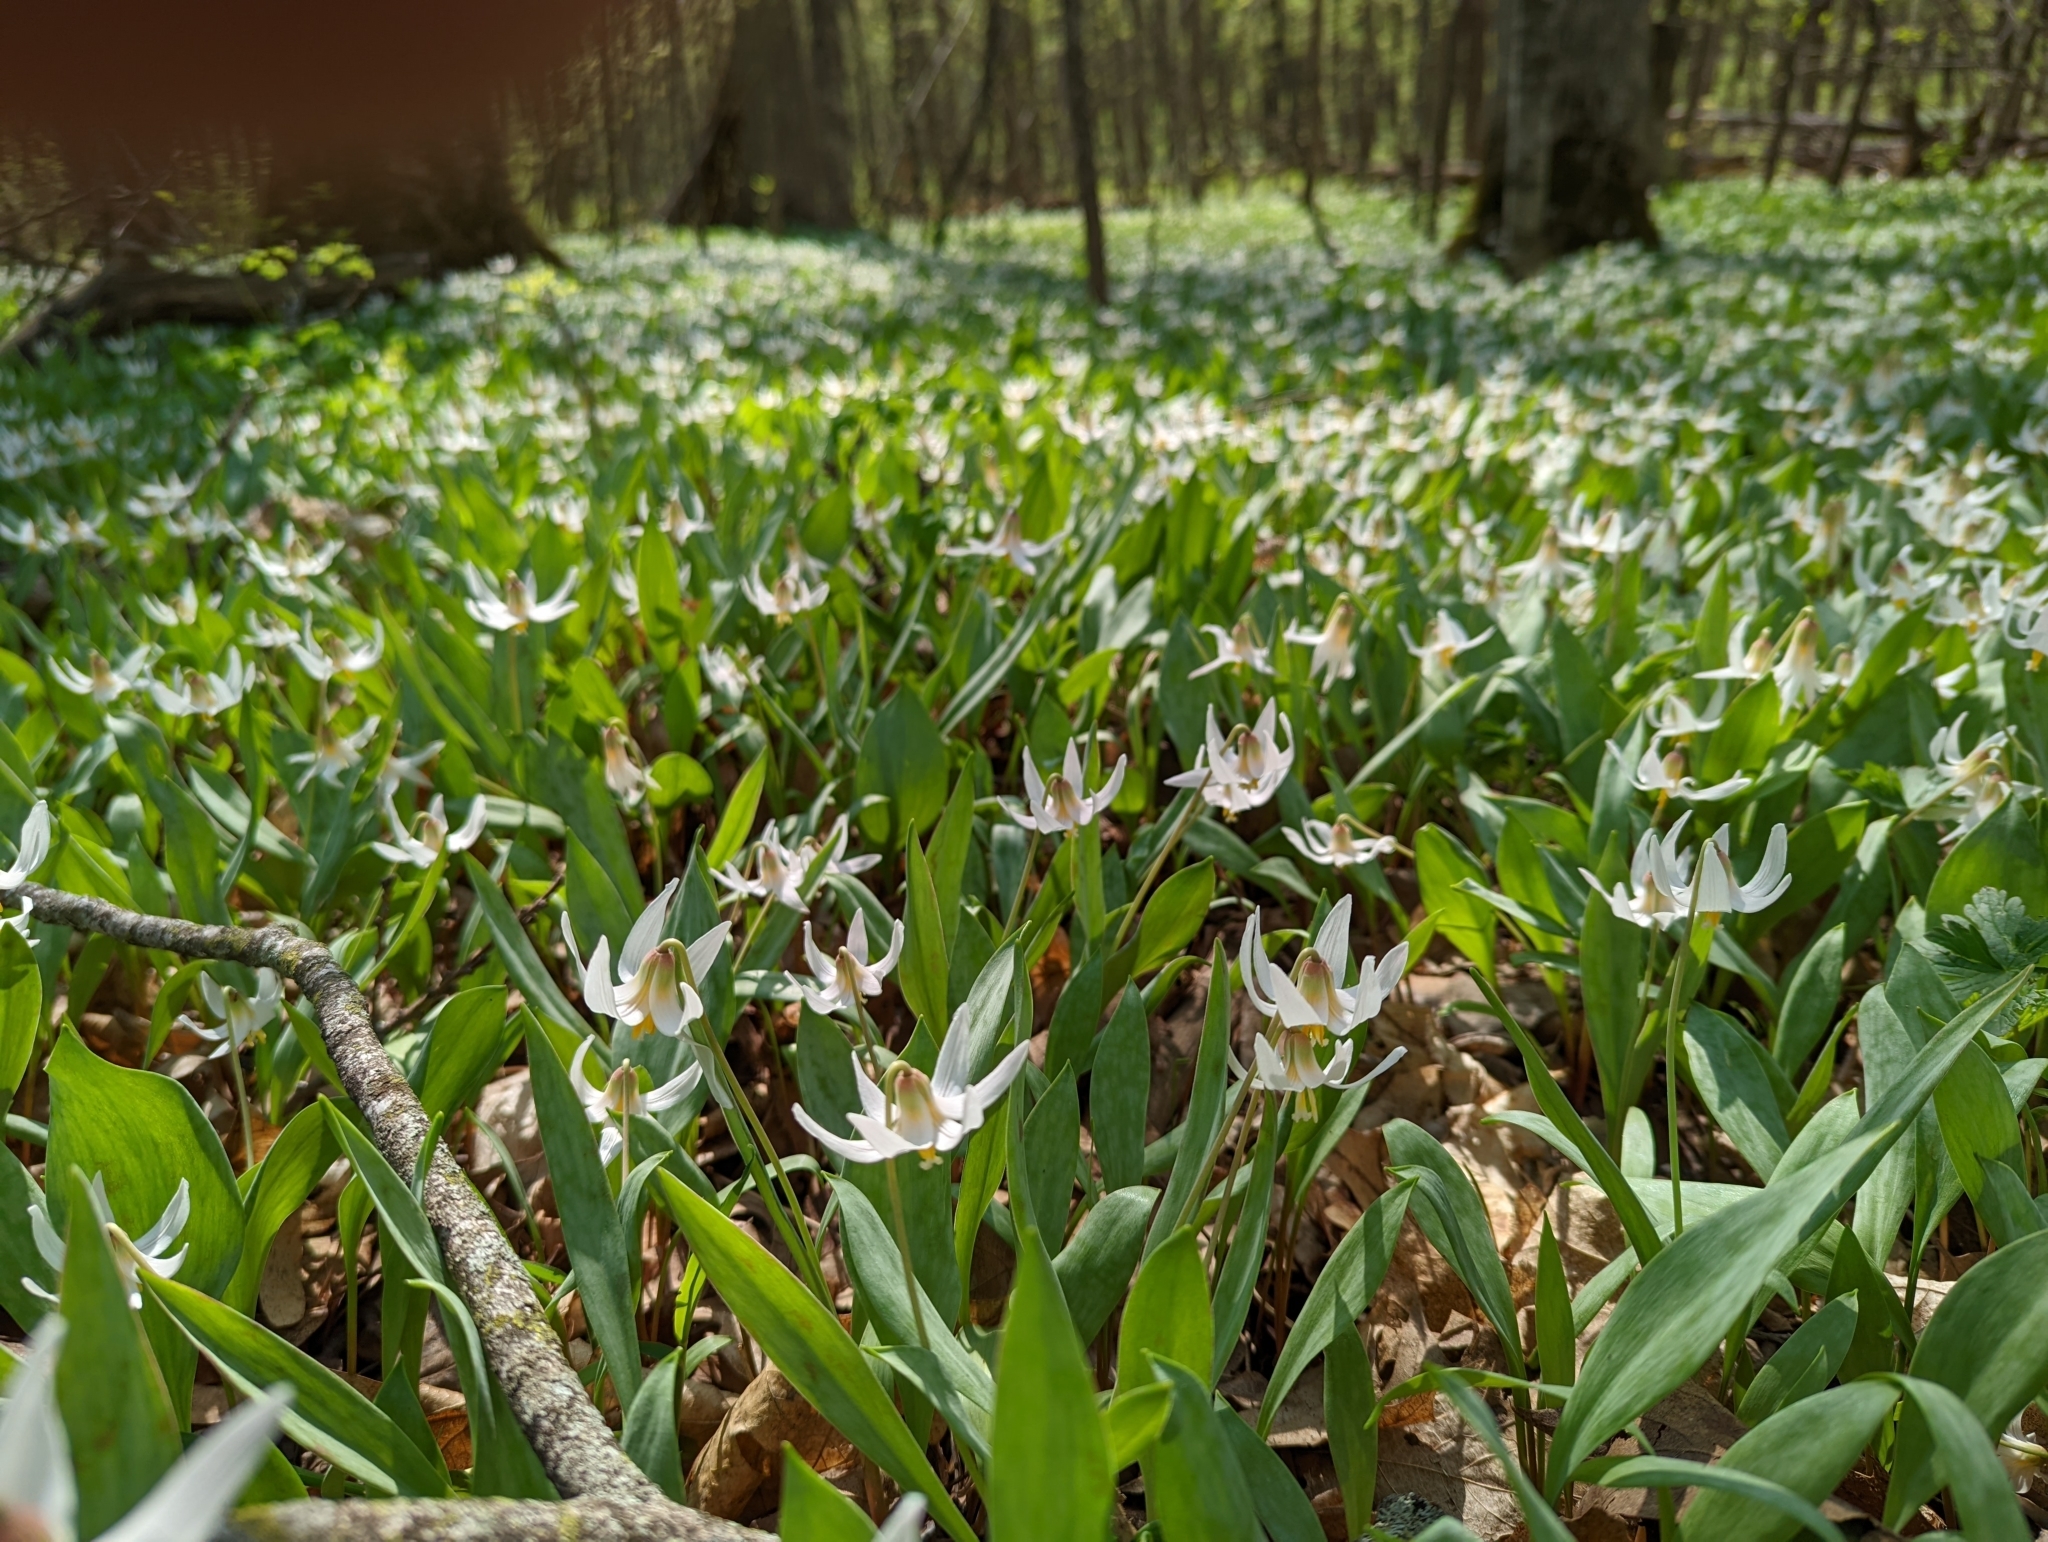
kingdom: Plantae
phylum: Tracheophyta
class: Liliopsida
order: Liliales
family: Liliaceae
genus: Erythronium
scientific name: Erythronium albidum
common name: White trout-lily
